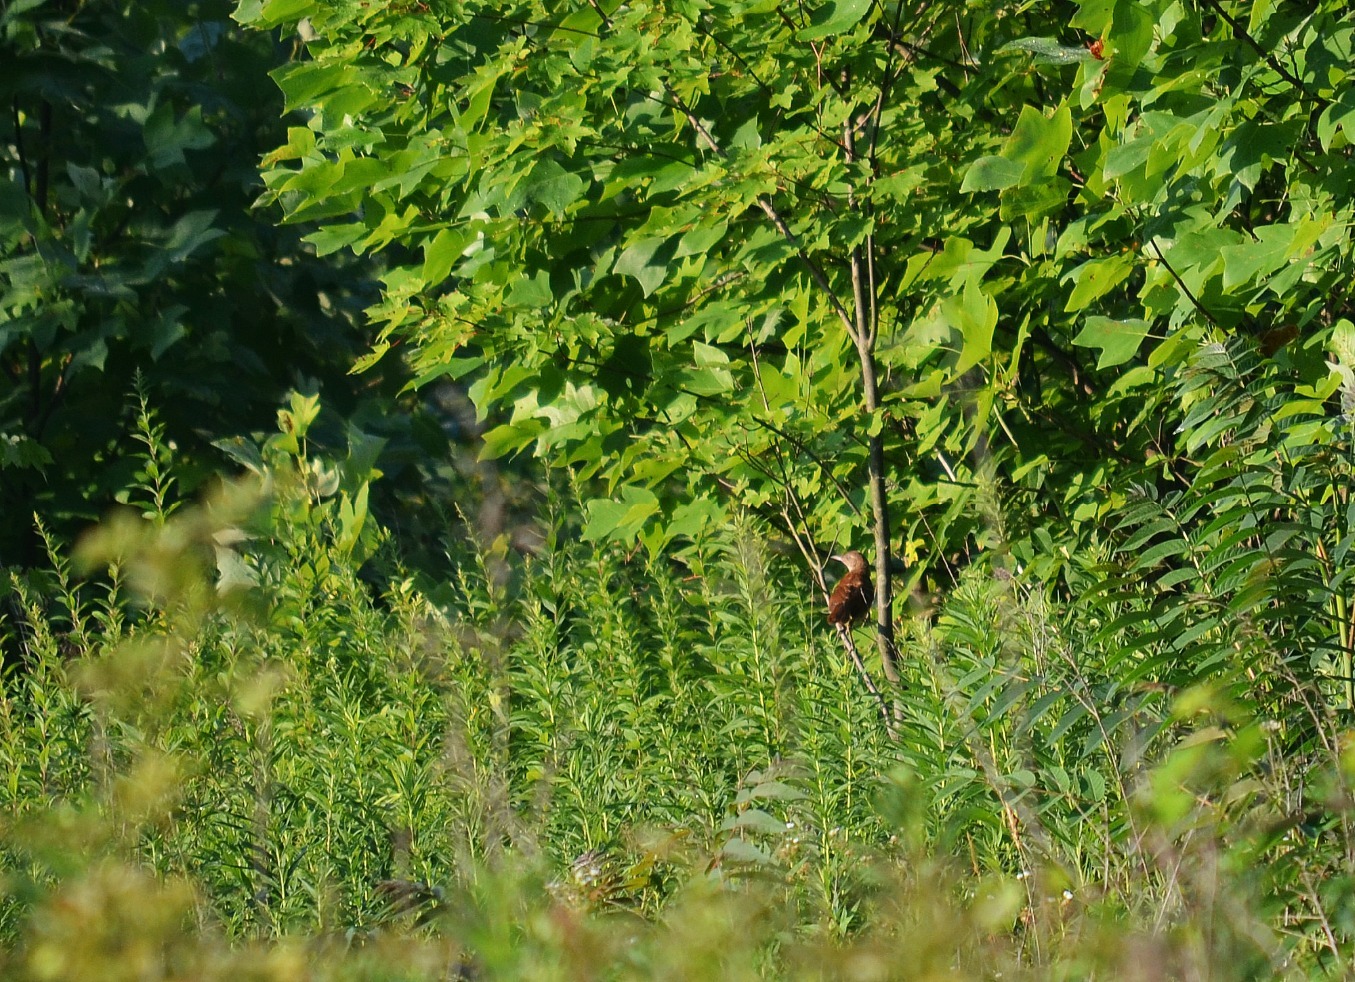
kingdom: Animalia
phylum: Chordata
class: Aves
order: Passeriformes
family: Mimidae
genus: Toxostoma
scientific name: Toxostoma rufum
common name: Brown thrasher
